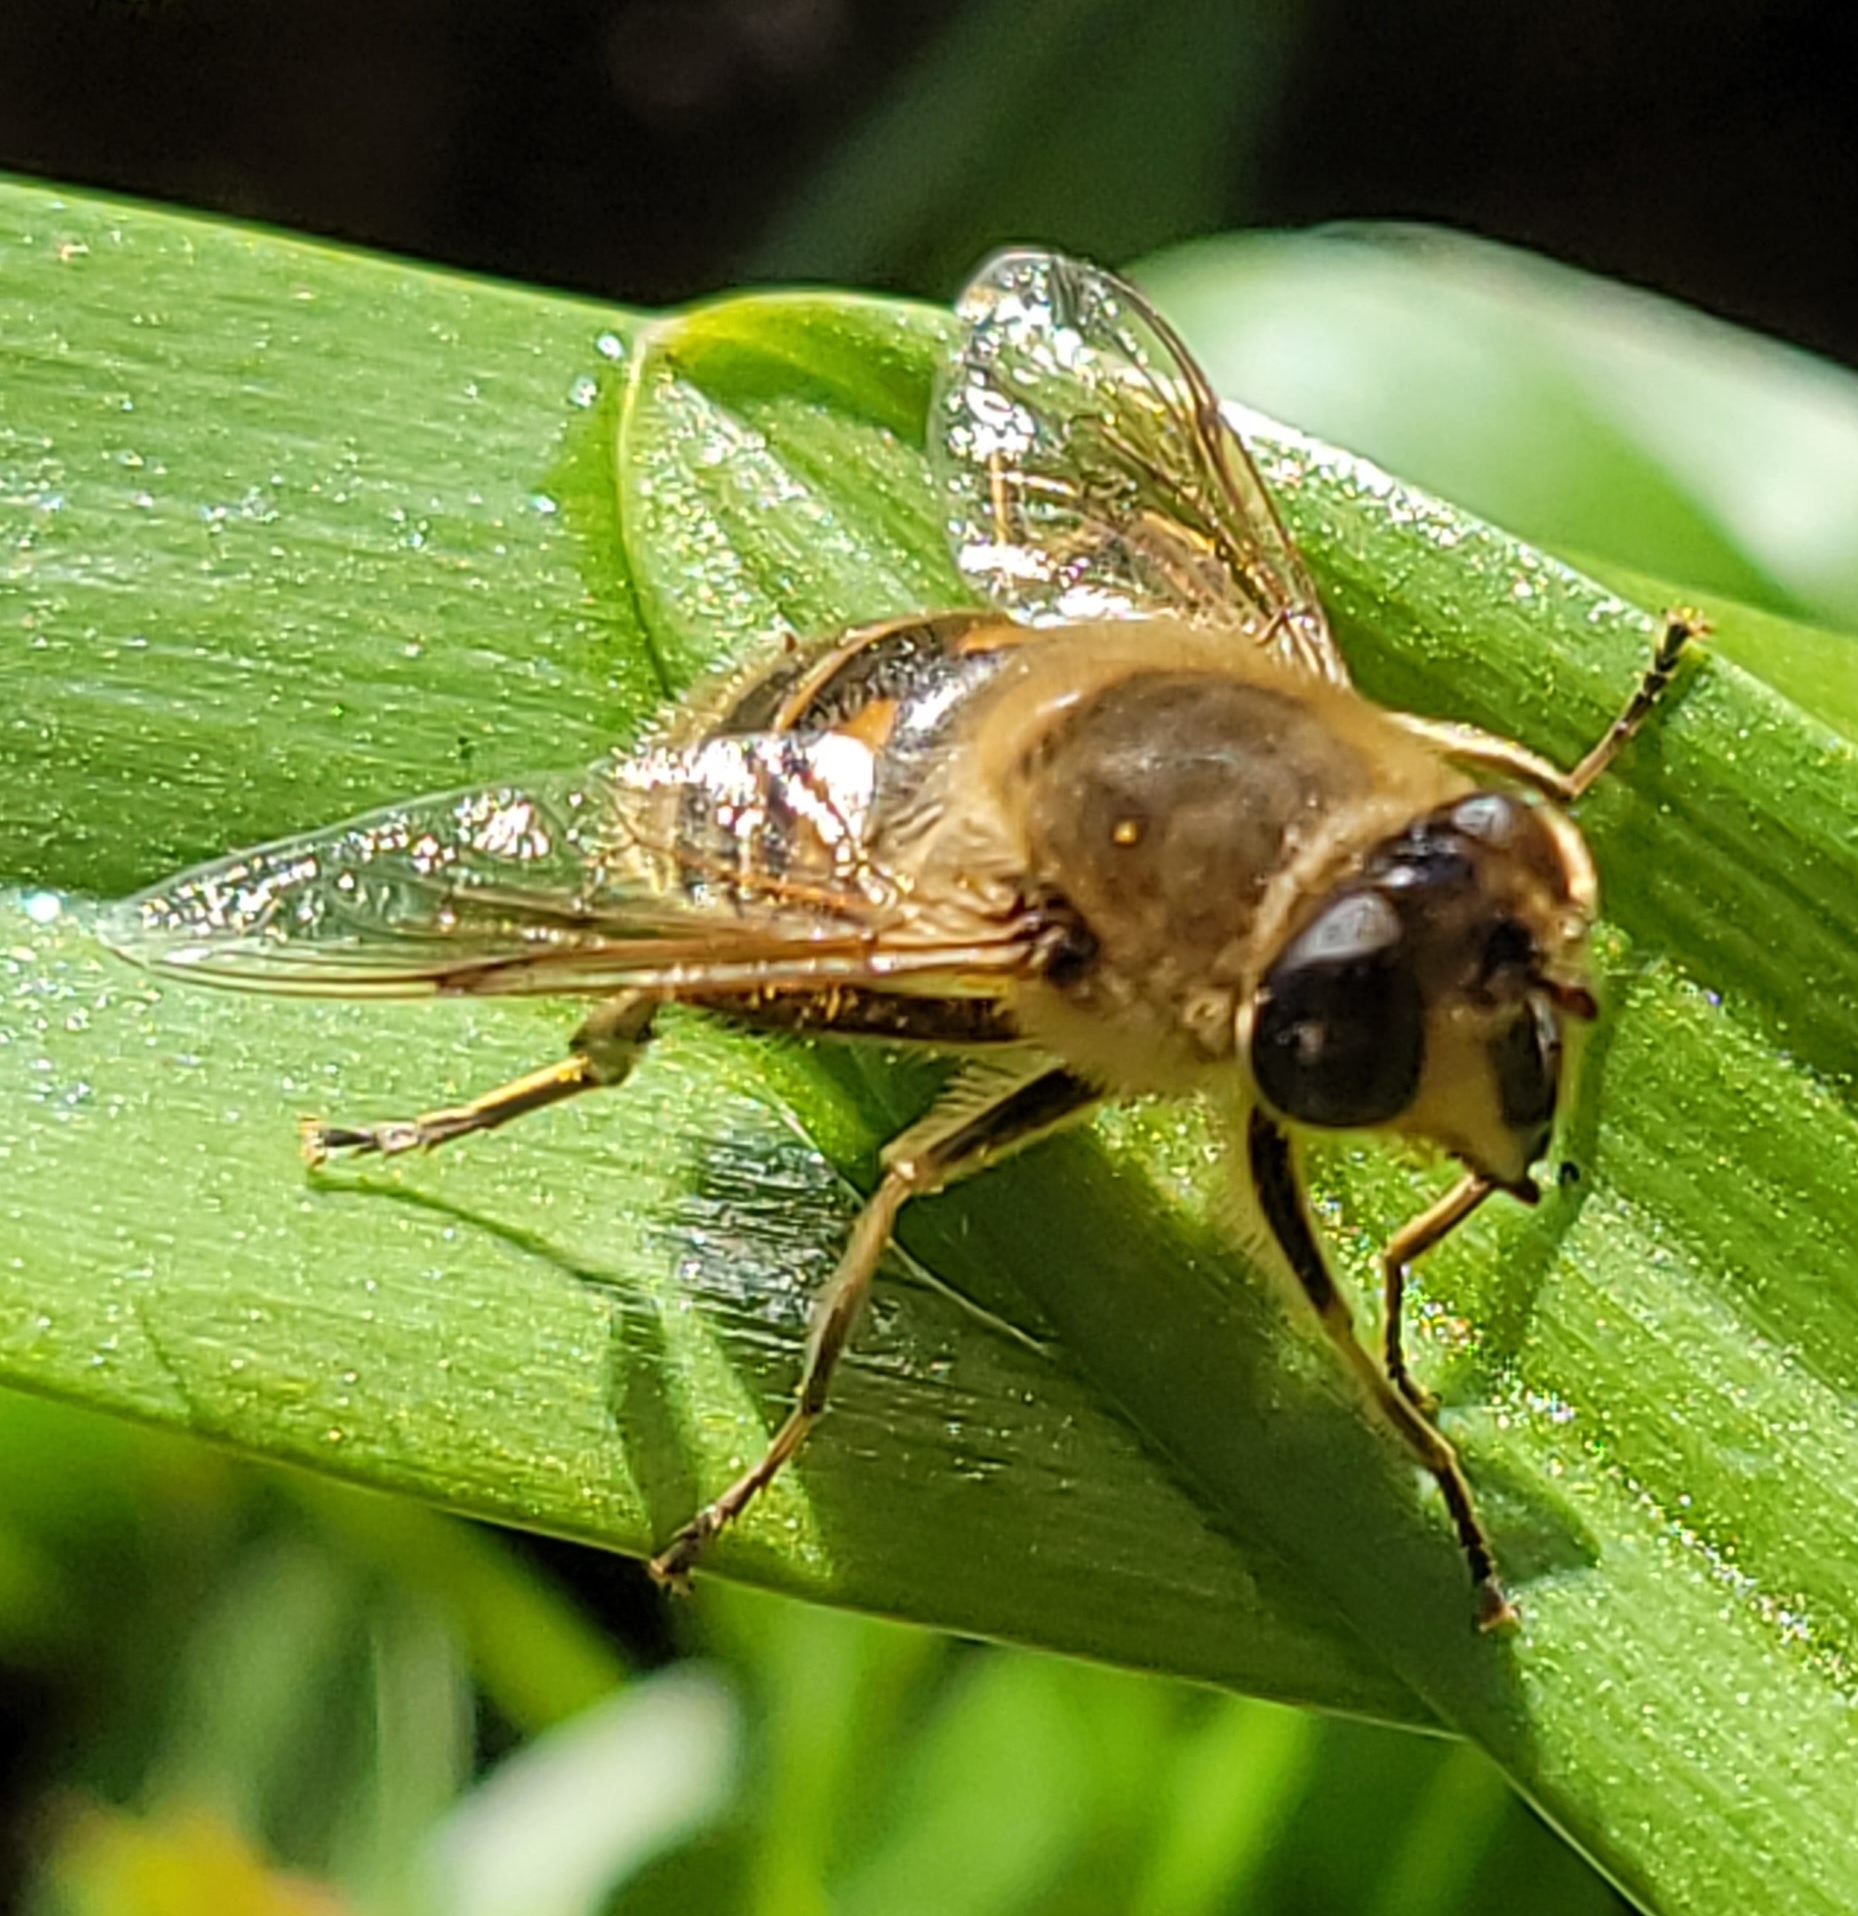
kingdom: Animalia
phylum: Arthropoda
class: Insecta
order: Diptera
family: Syrphidae
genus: Eristalis
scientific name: Eristalis tenax
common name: Drone fly
